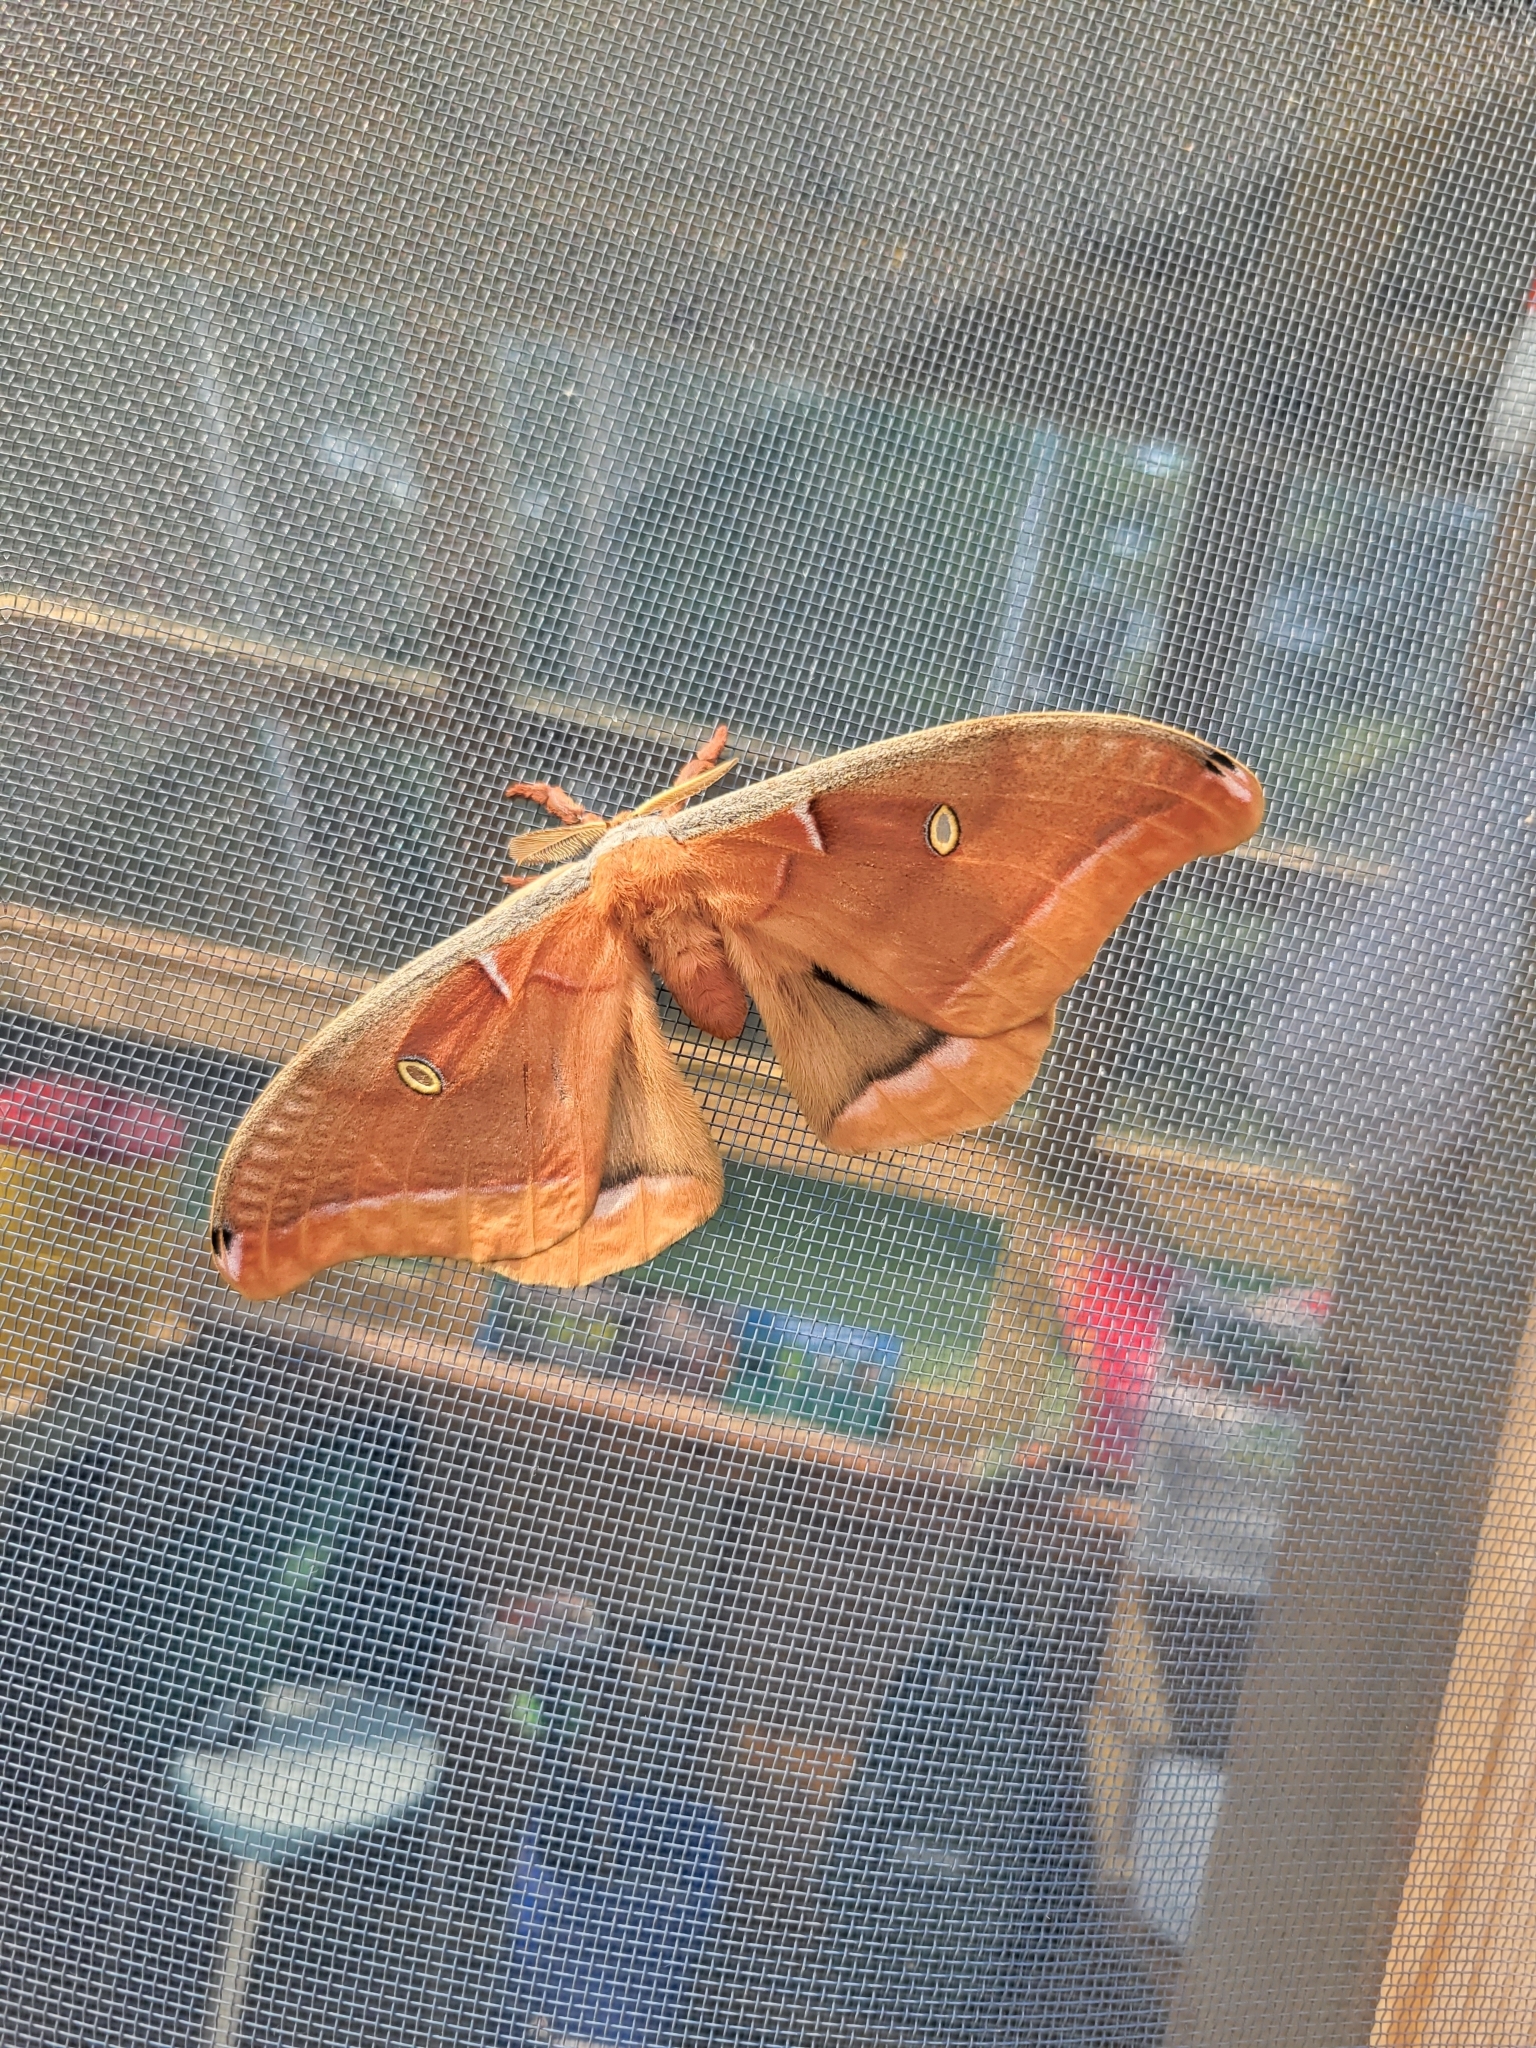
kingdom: Animalia
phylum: Arthropoda
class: Insecta
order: Lepidoptera
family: Saturniidae
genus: Antheraea
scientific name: Antheraea polyphemus
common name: Polyphemus moth
